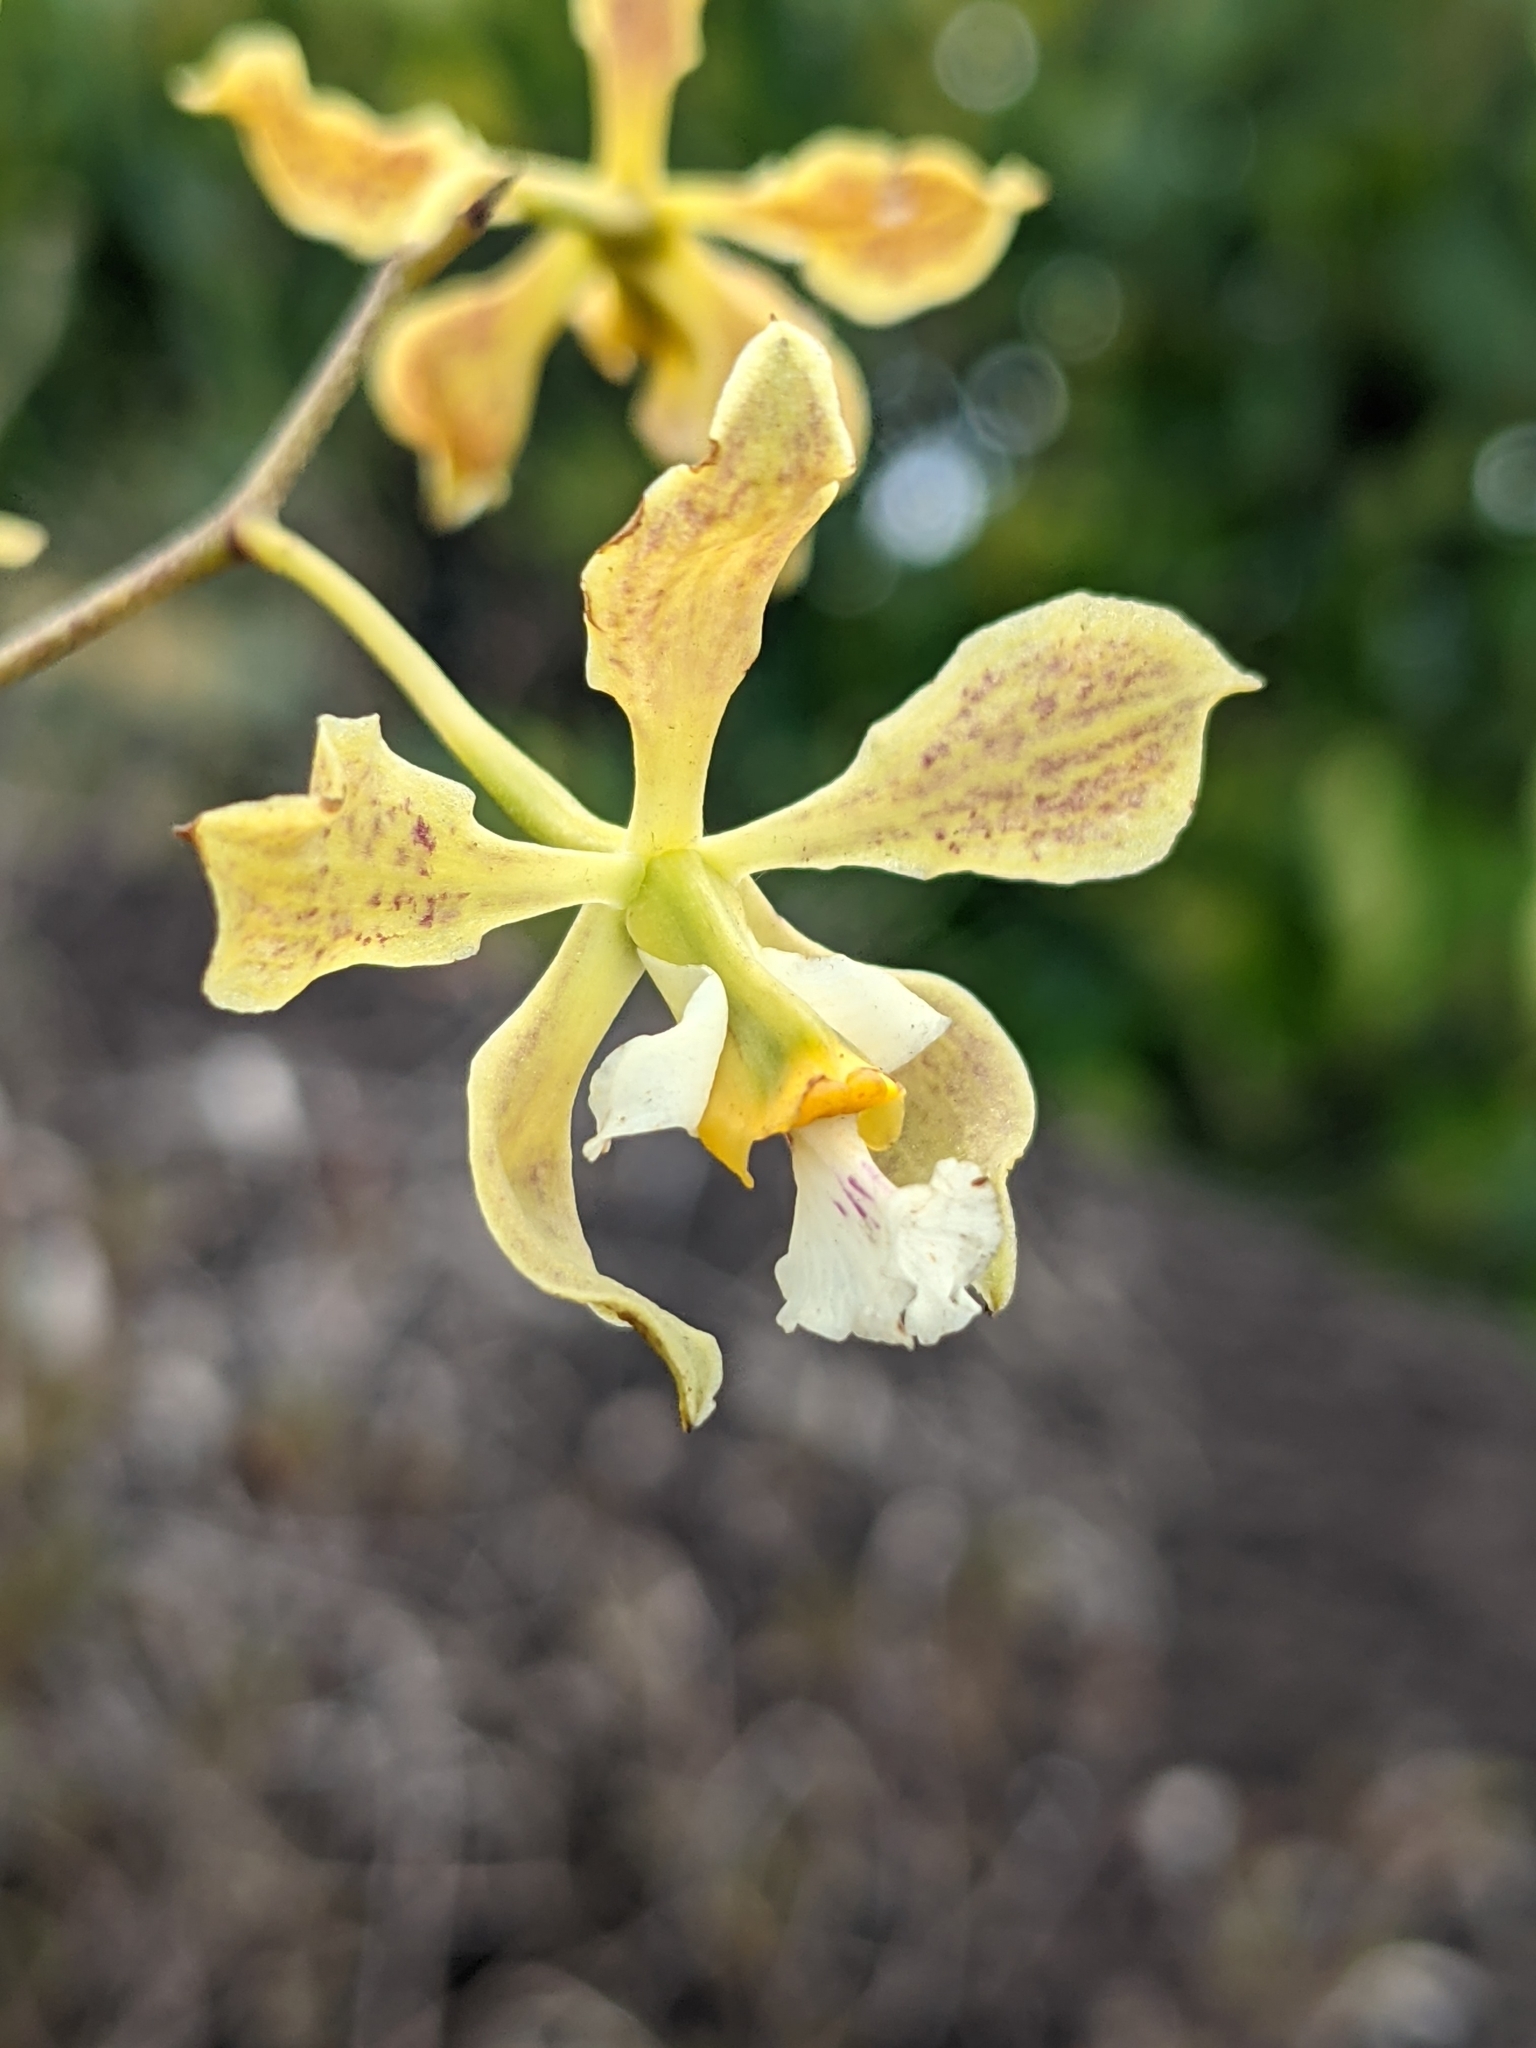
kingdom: Plantae
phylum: Tracheophyta
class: Liliopsida
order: Asparagales
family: Orchidaceae
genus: Encyclia
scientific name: Encyclia granitica
